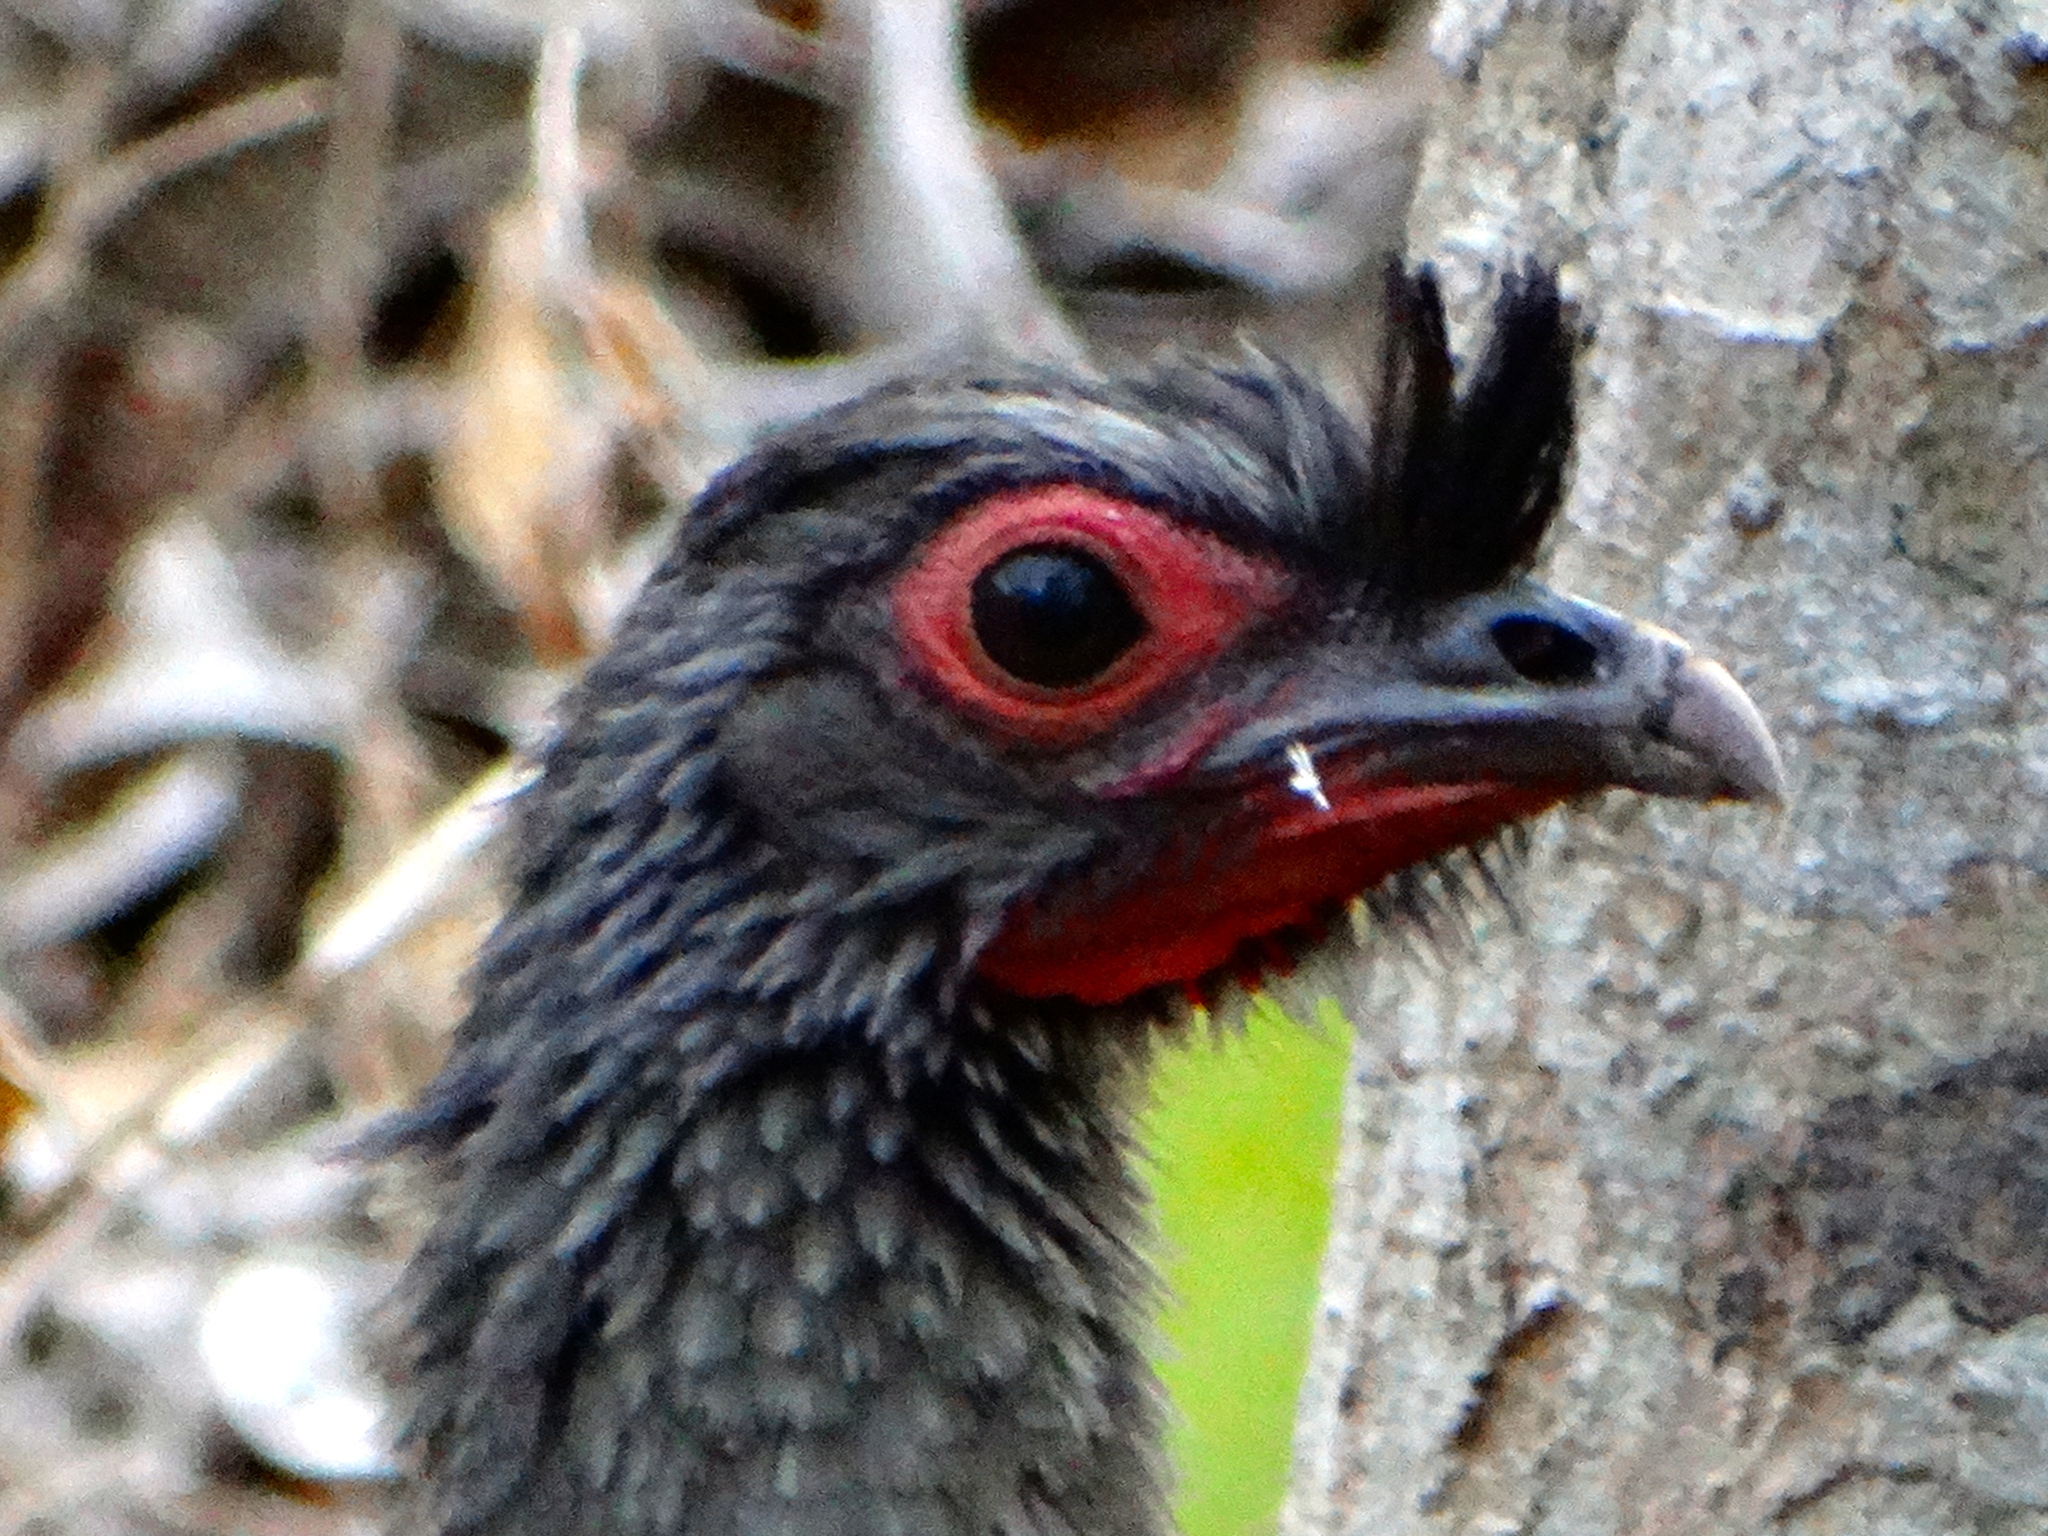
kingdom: Animalia
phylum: Chordata
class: Aves
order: Galliformes
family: Cracidae
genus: Ortalis
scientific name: Ortalis wagleri
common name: Rufous-bellied chachalaca
